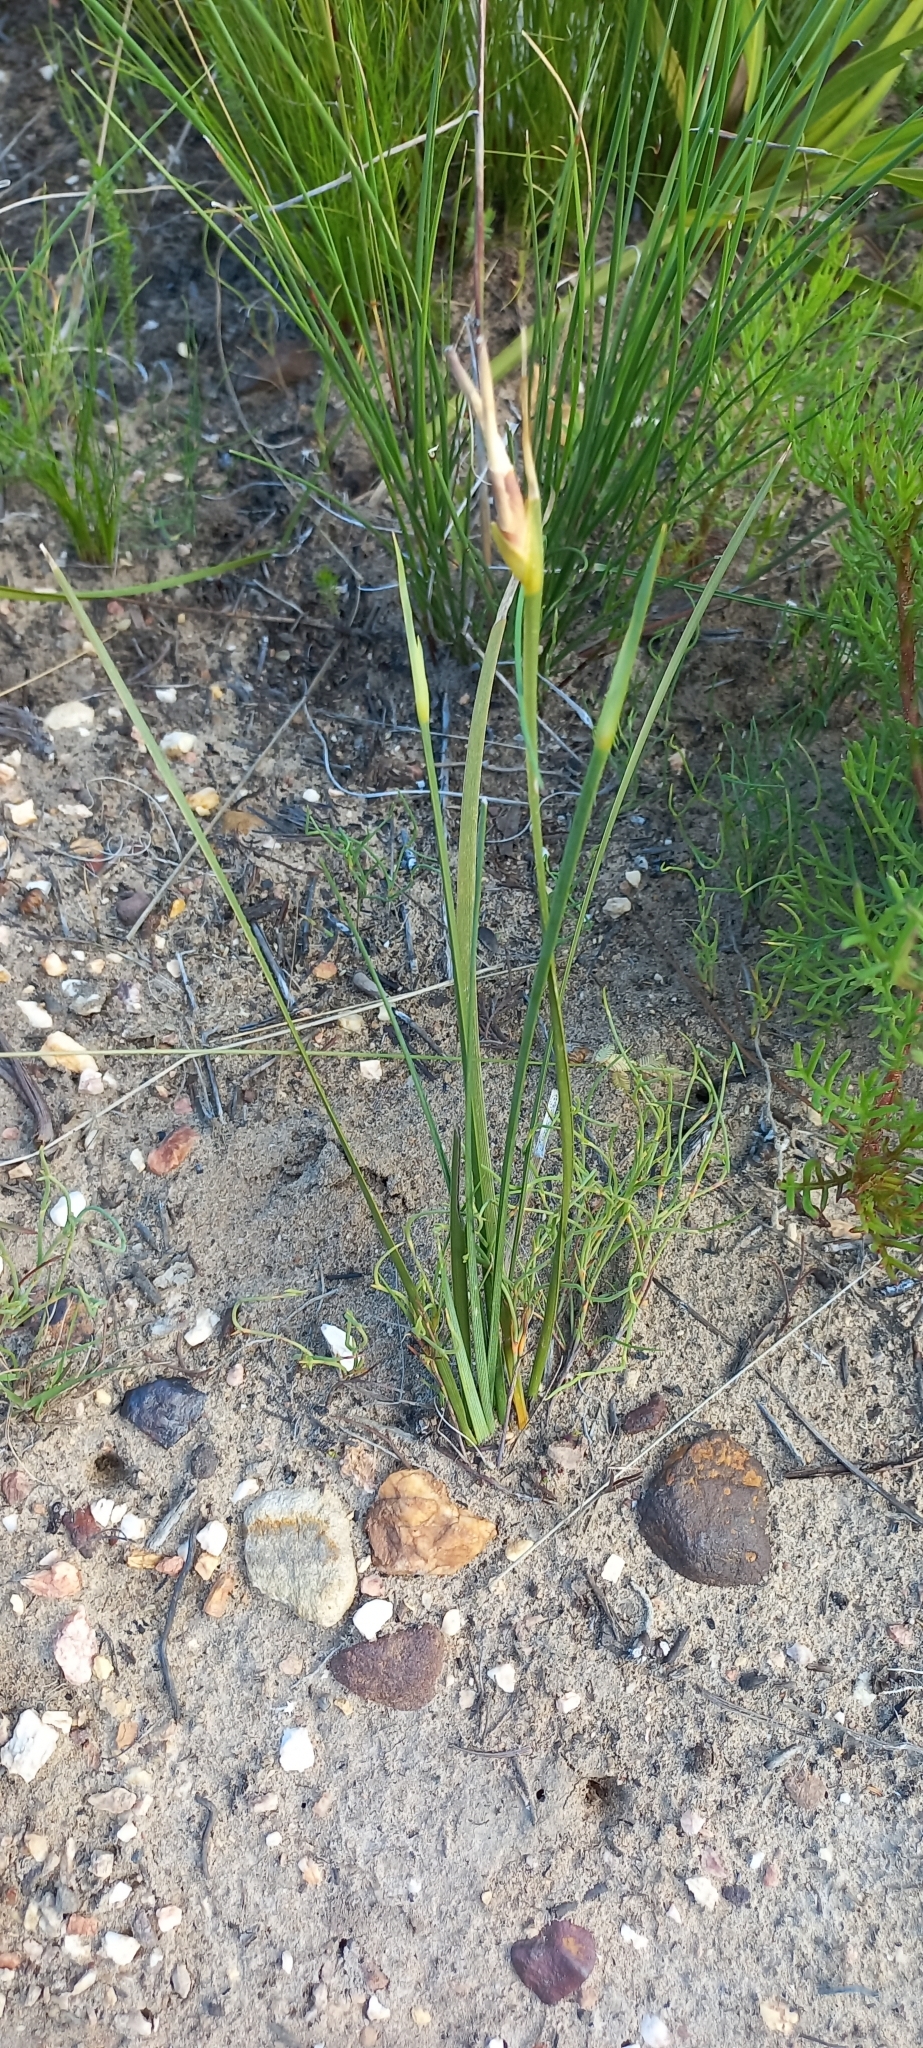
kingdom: Plantae
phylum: Tracheophyta
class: Liliopsida
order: Asparagales
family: Iridaceae
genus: Bobartia
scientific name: Bobartia gladiata
